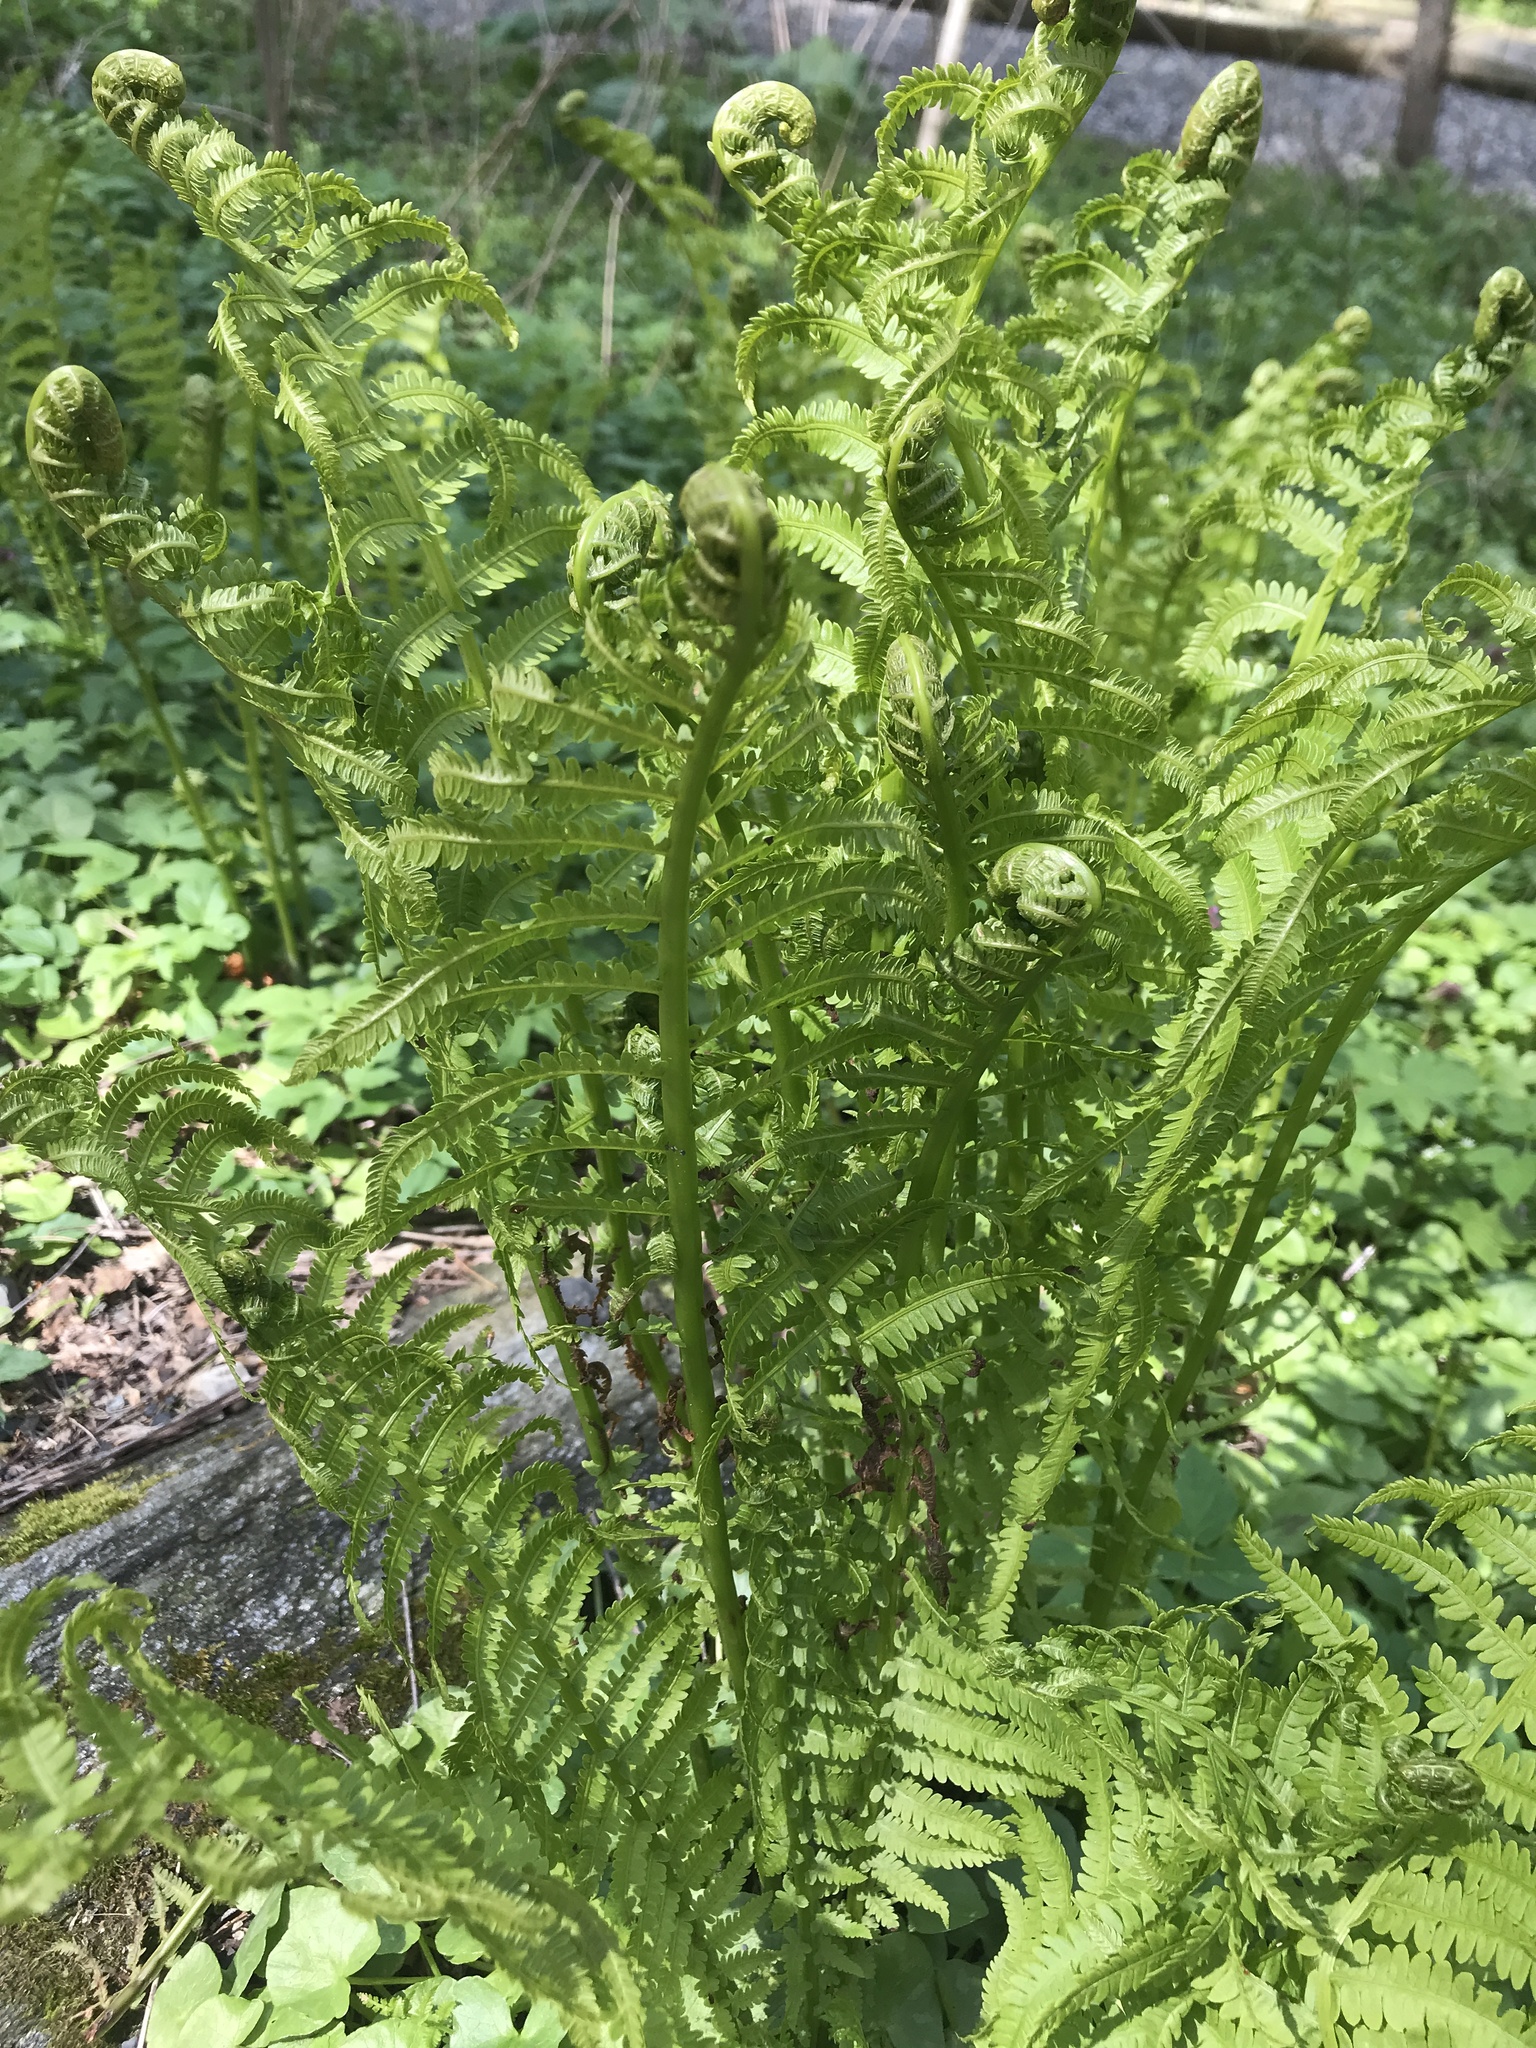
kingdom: Plantae
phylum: Tracheophyta
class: Polypodiopsida
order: Polypodiales
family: Onocleaceae
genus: Matteuccia
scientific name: Matteuccia struthiopteris
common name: Ostrich fern
